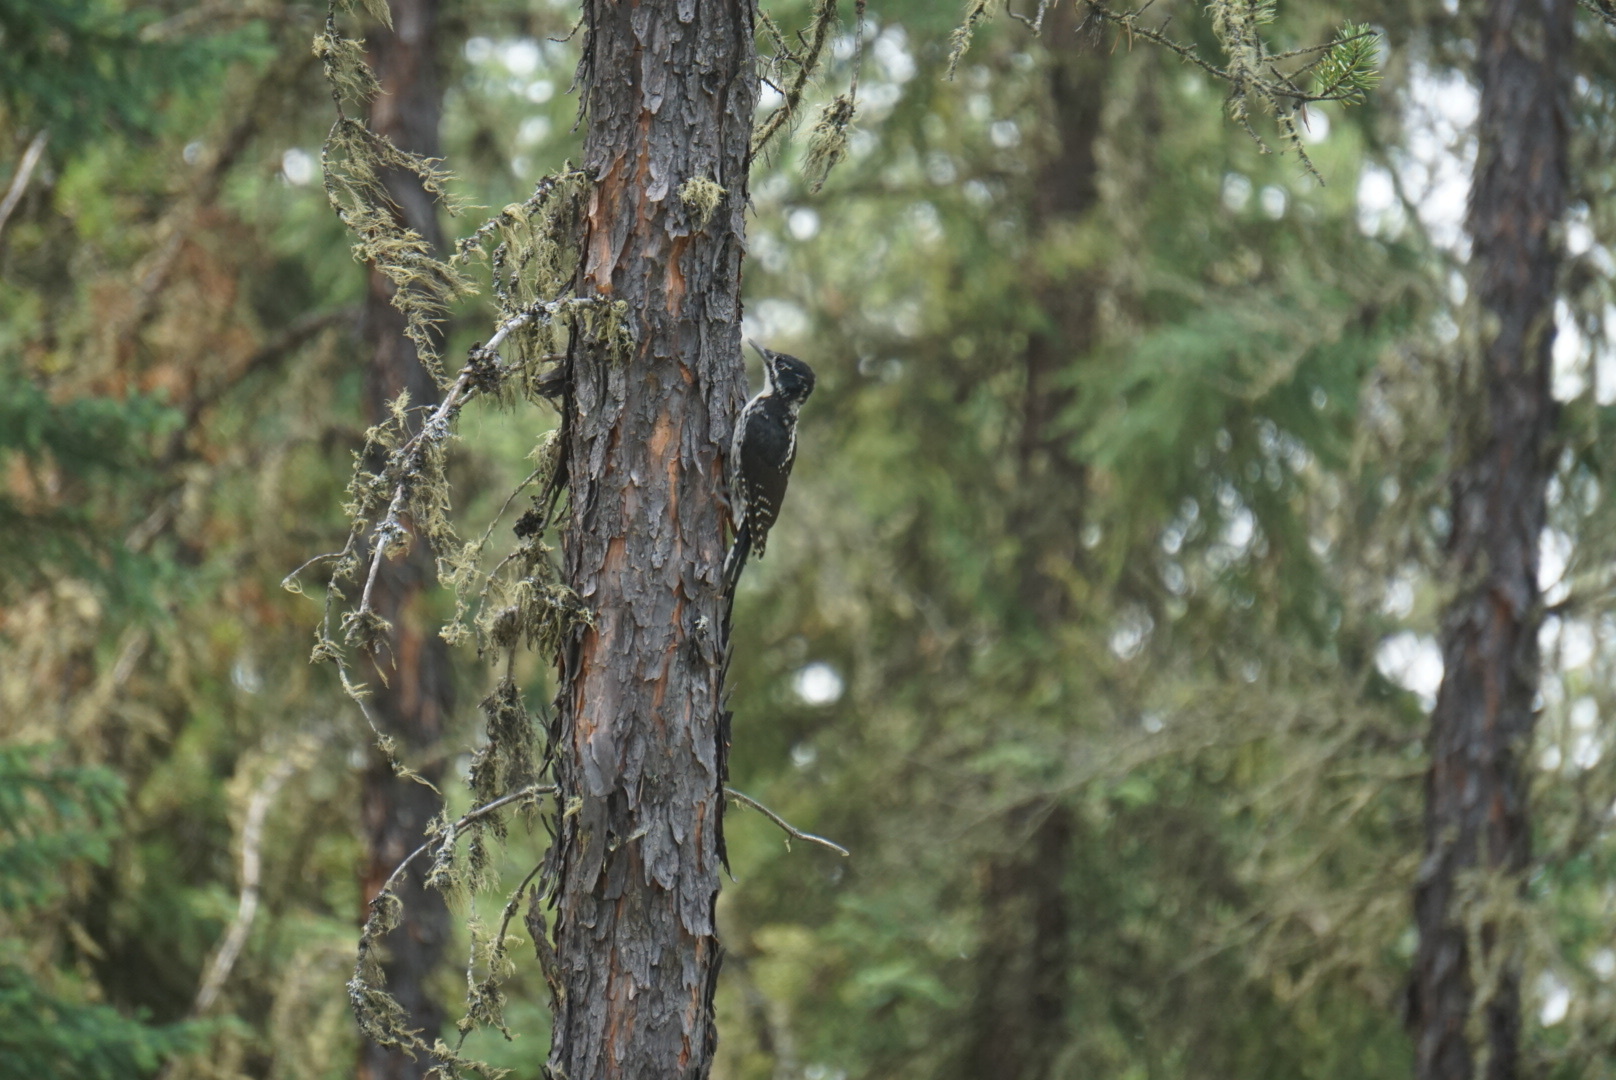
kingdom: Animalia
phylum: Chordata
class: Aves
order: Piciformes
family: Picidae
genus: Picoides
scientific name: Picoides dorsalis
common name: American three-toed woodpecker
